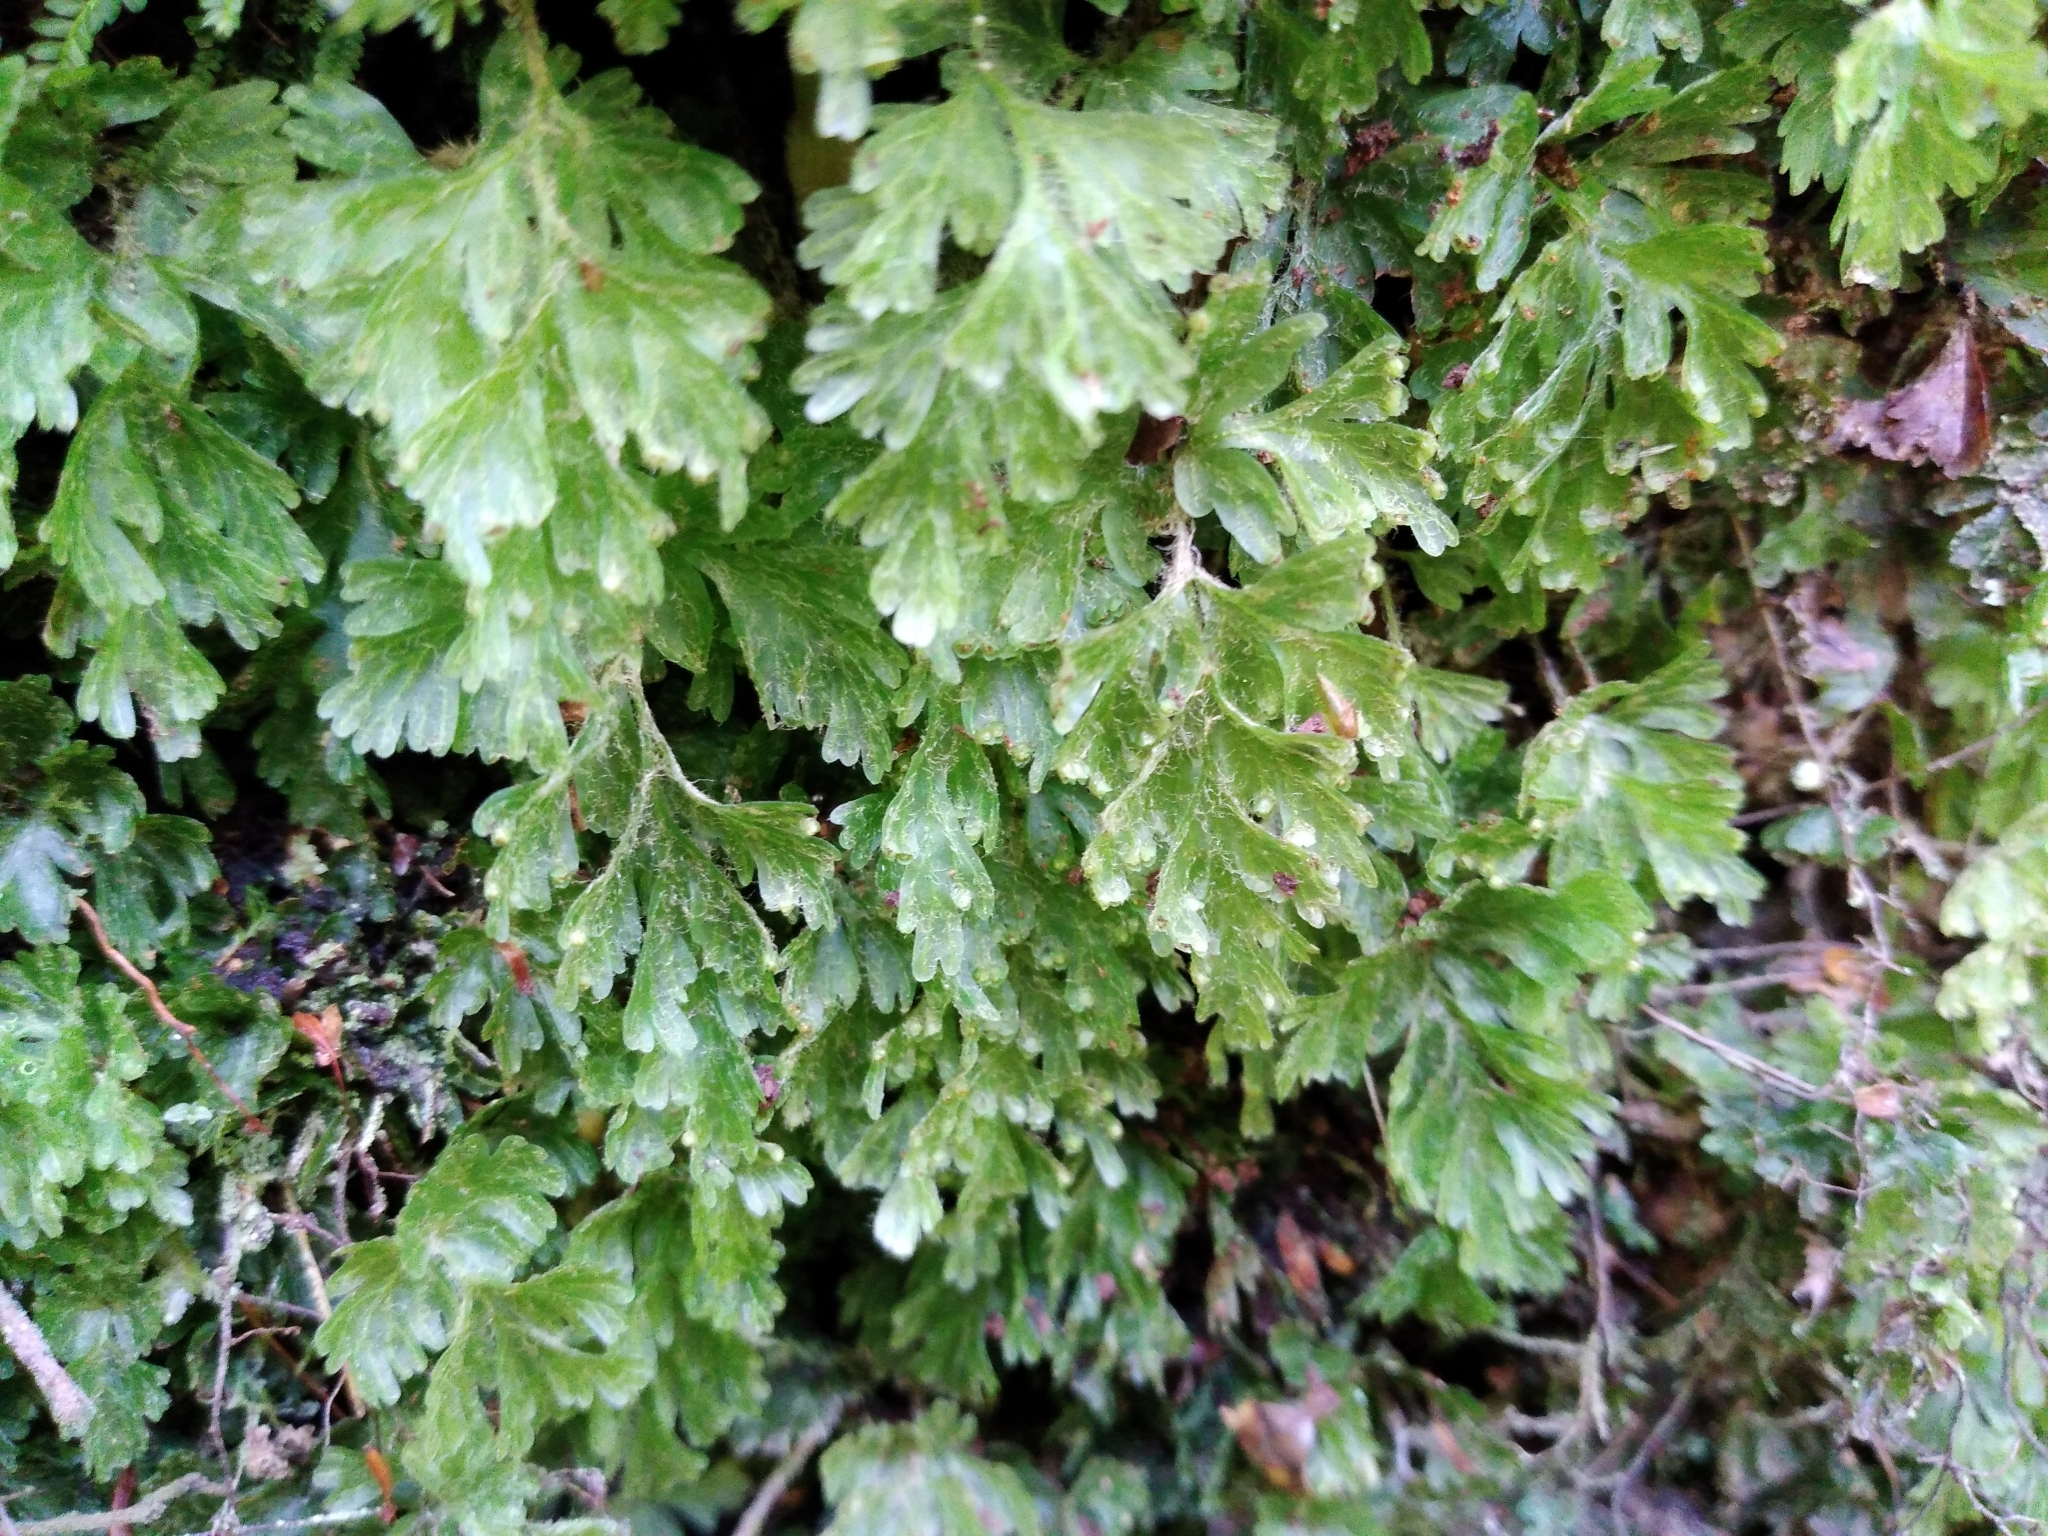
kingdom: Plantae
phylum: Tracheophyta
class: Polypodiopsida
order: Hymenophyllales
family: Hymenophyllaceae
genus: Hymenophyllum
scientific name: Hymenophyllum rufescens
